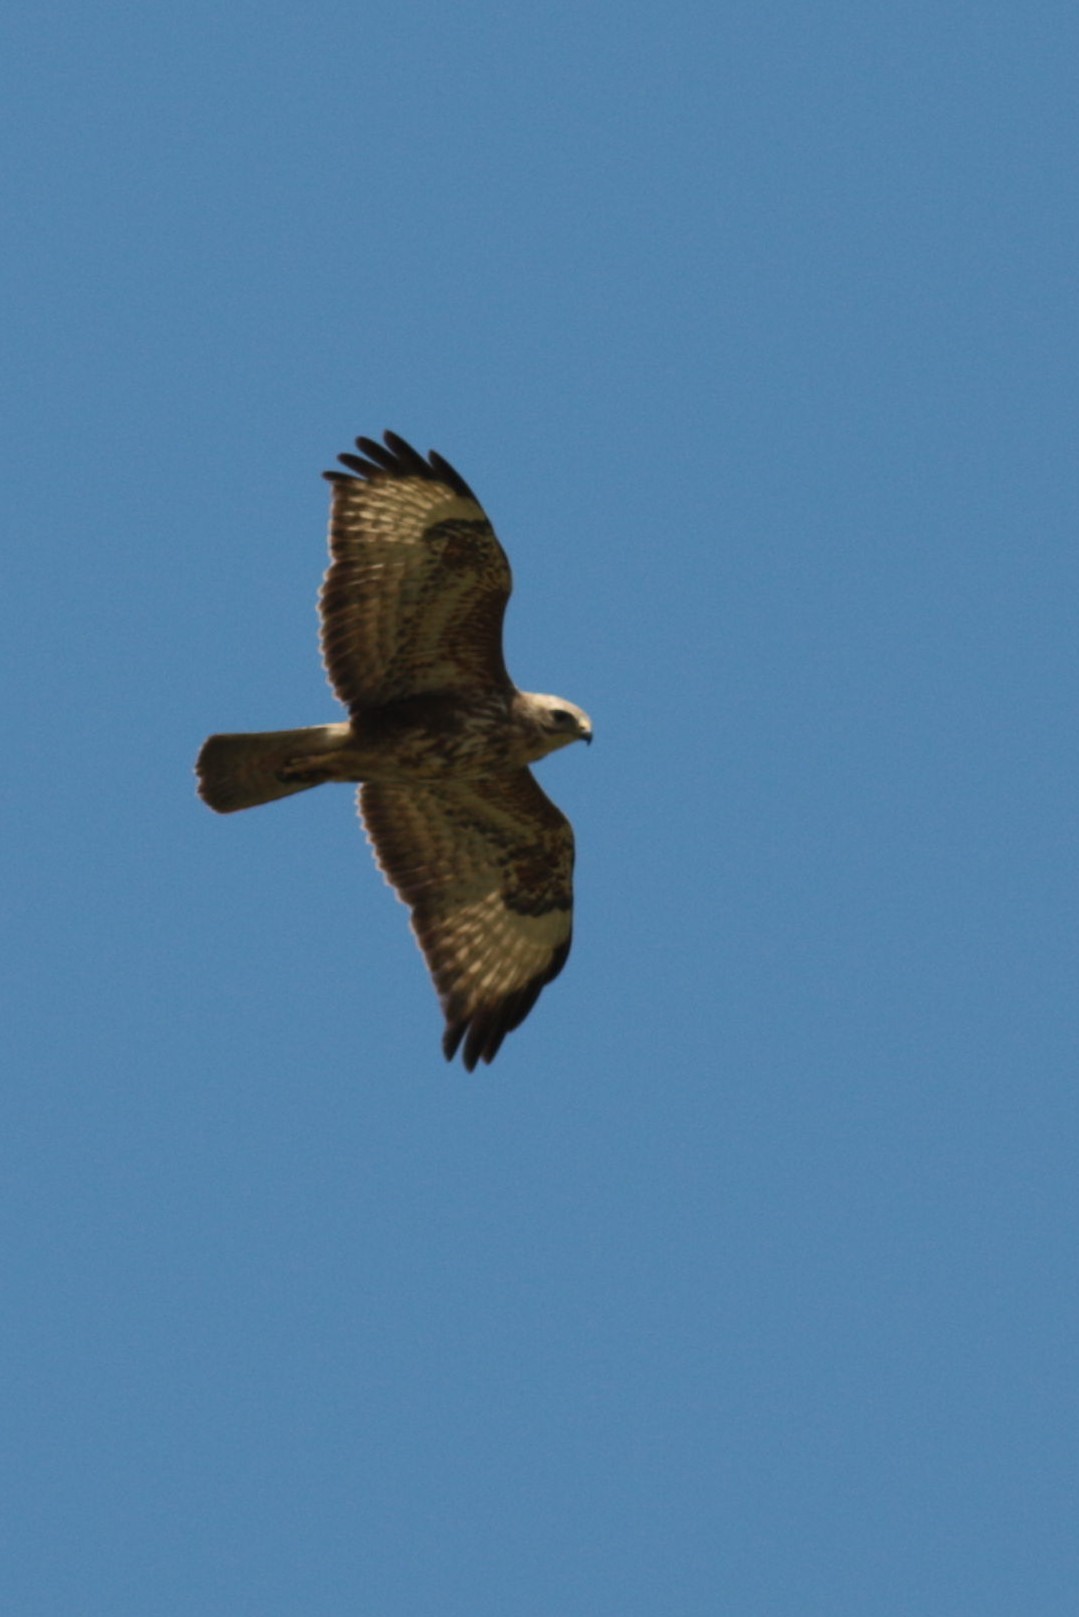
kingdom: Animalia
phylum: Chordata
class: Aves
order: Accipitriformes
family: Accipitridae
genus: Buteo
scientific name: Buteo buteo
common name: Common buzzard
